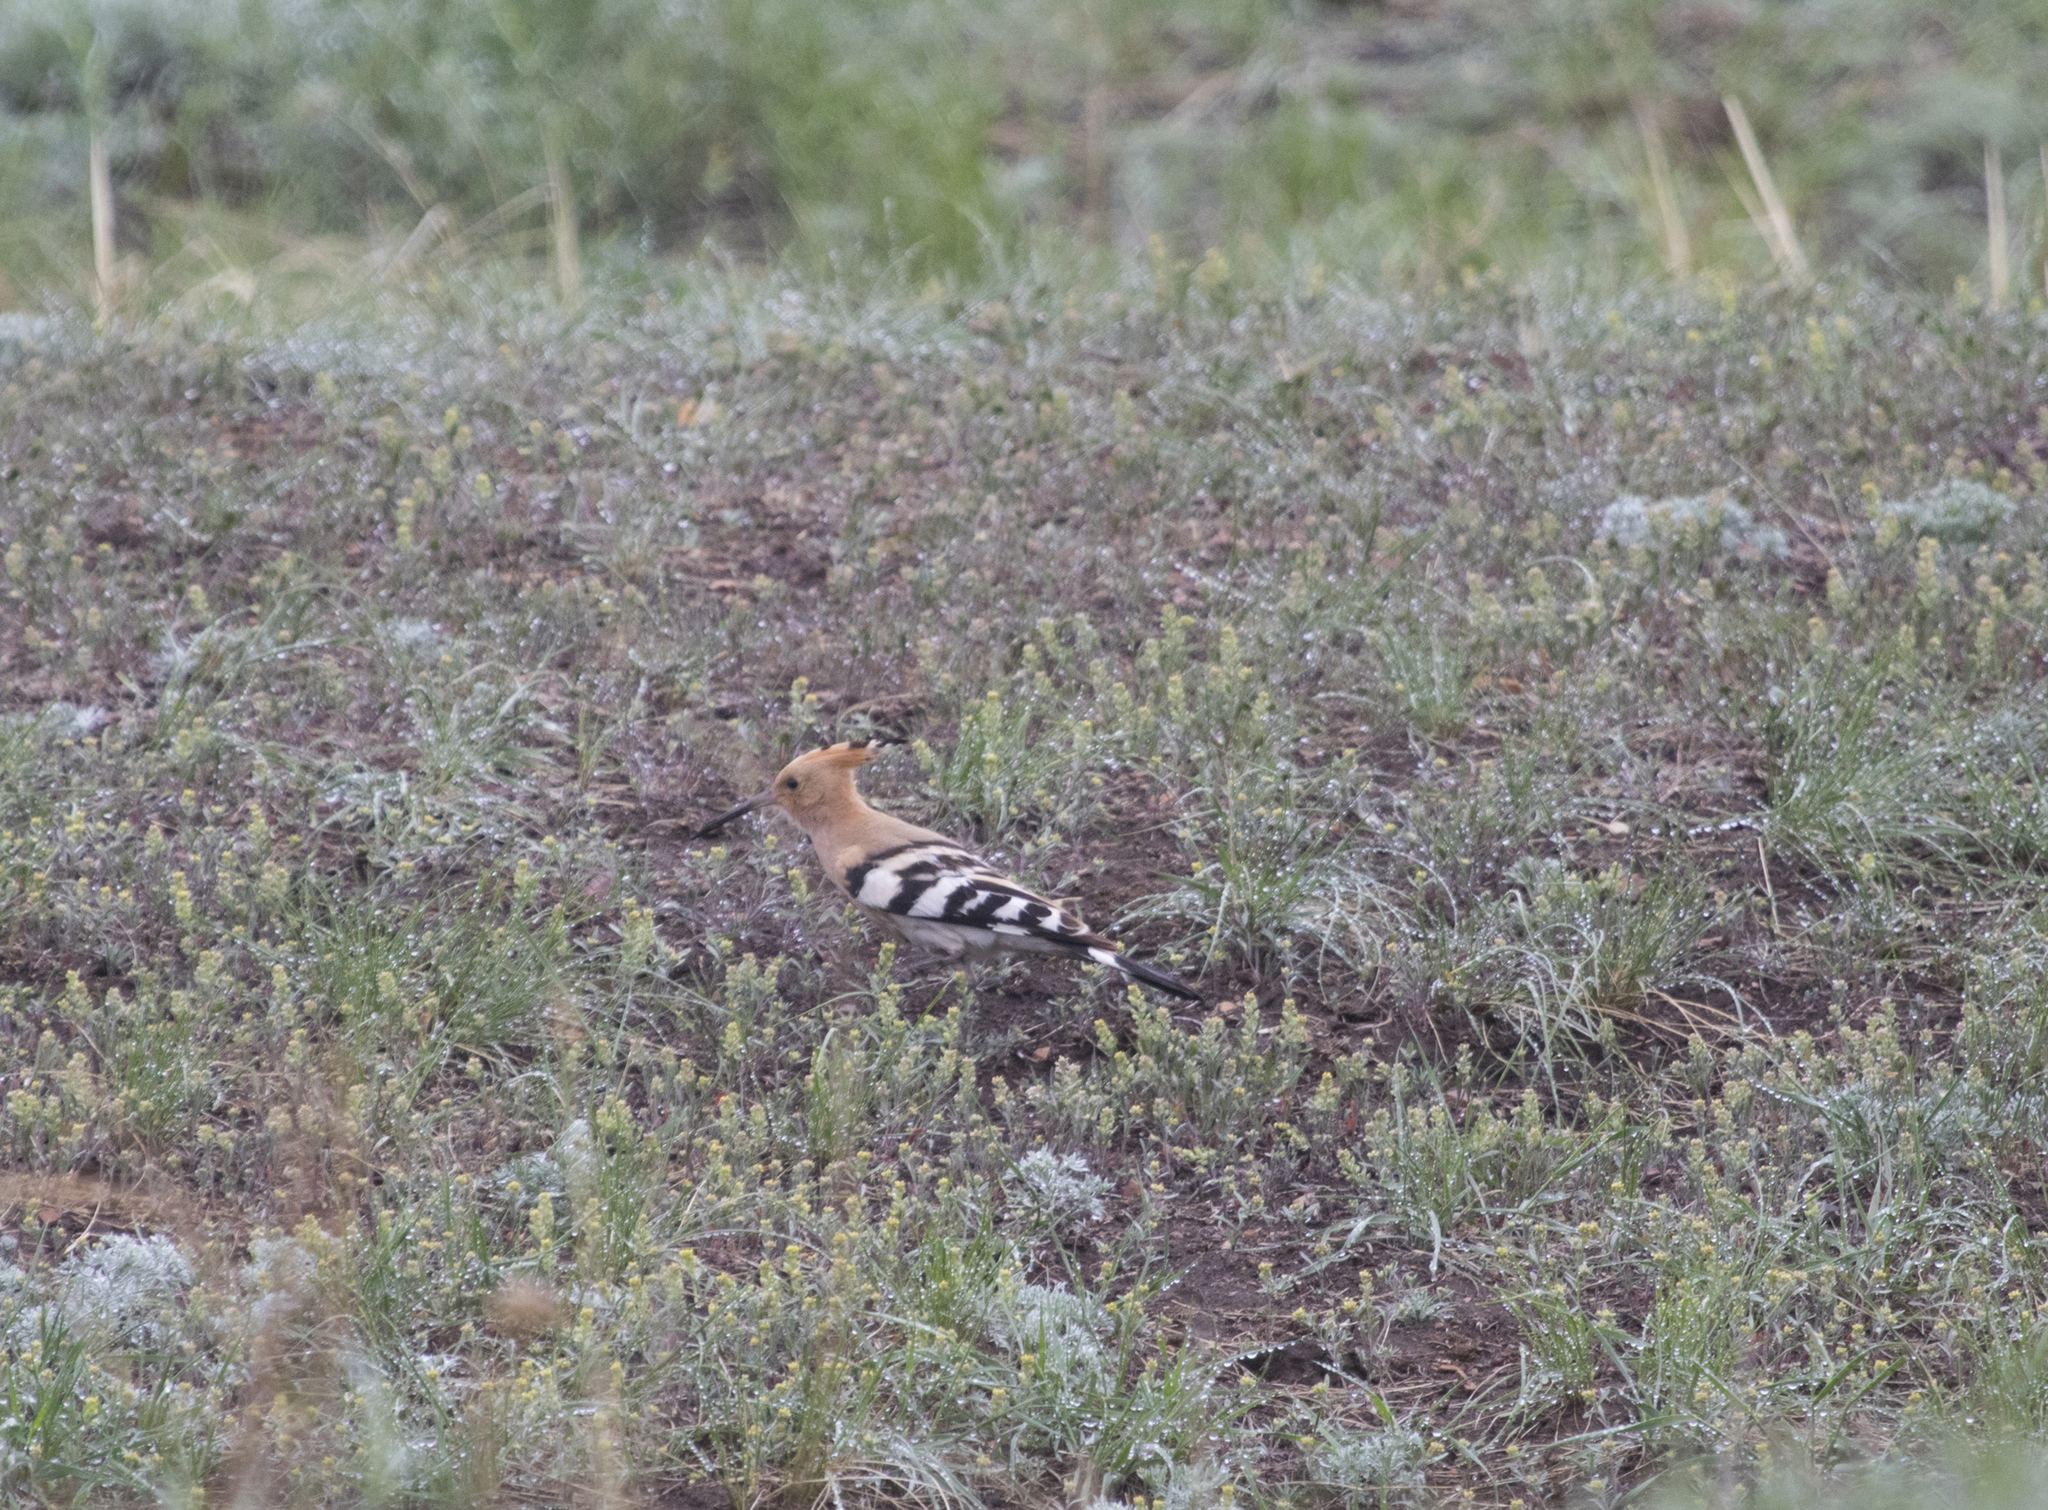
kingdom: Animalia
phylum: Chordata
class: Aves
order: Bucerotiformes
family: Upupidae
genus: Upupa
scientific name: Upupa epops
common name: Eurasian hoopoe
